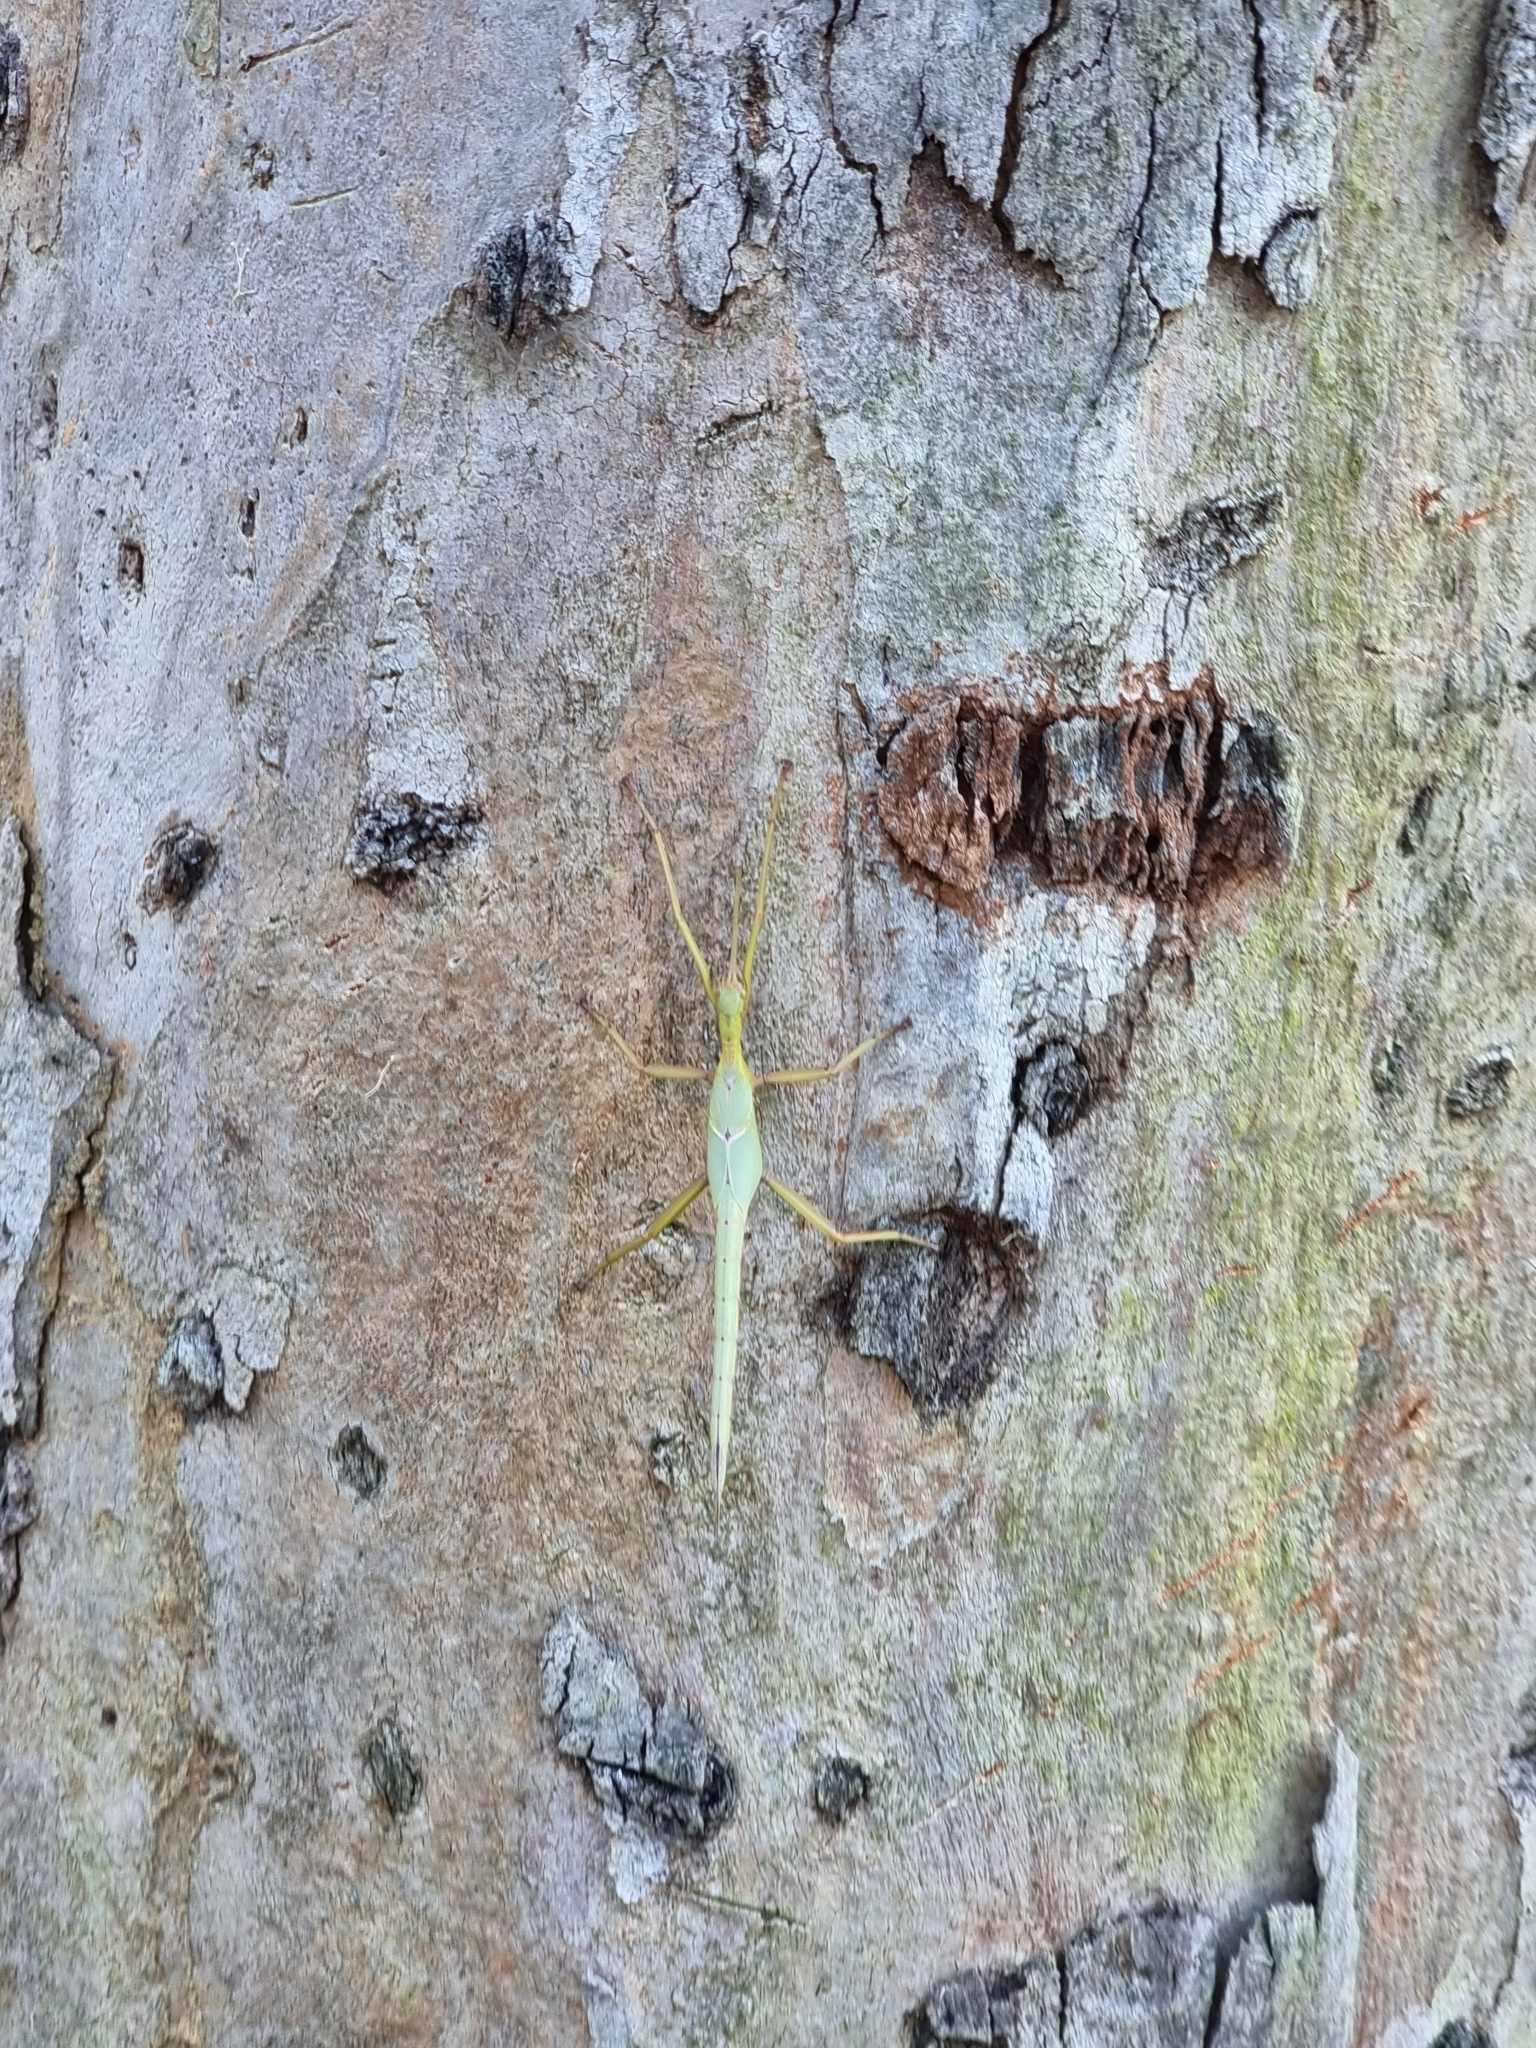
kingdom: Animalia
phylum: Arthropoda
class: Insecta
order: Phasmida
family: Phasmatidae
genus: Podacanthus
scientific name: Podacanthus viridiroseus
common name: Red-winged stick-insect
